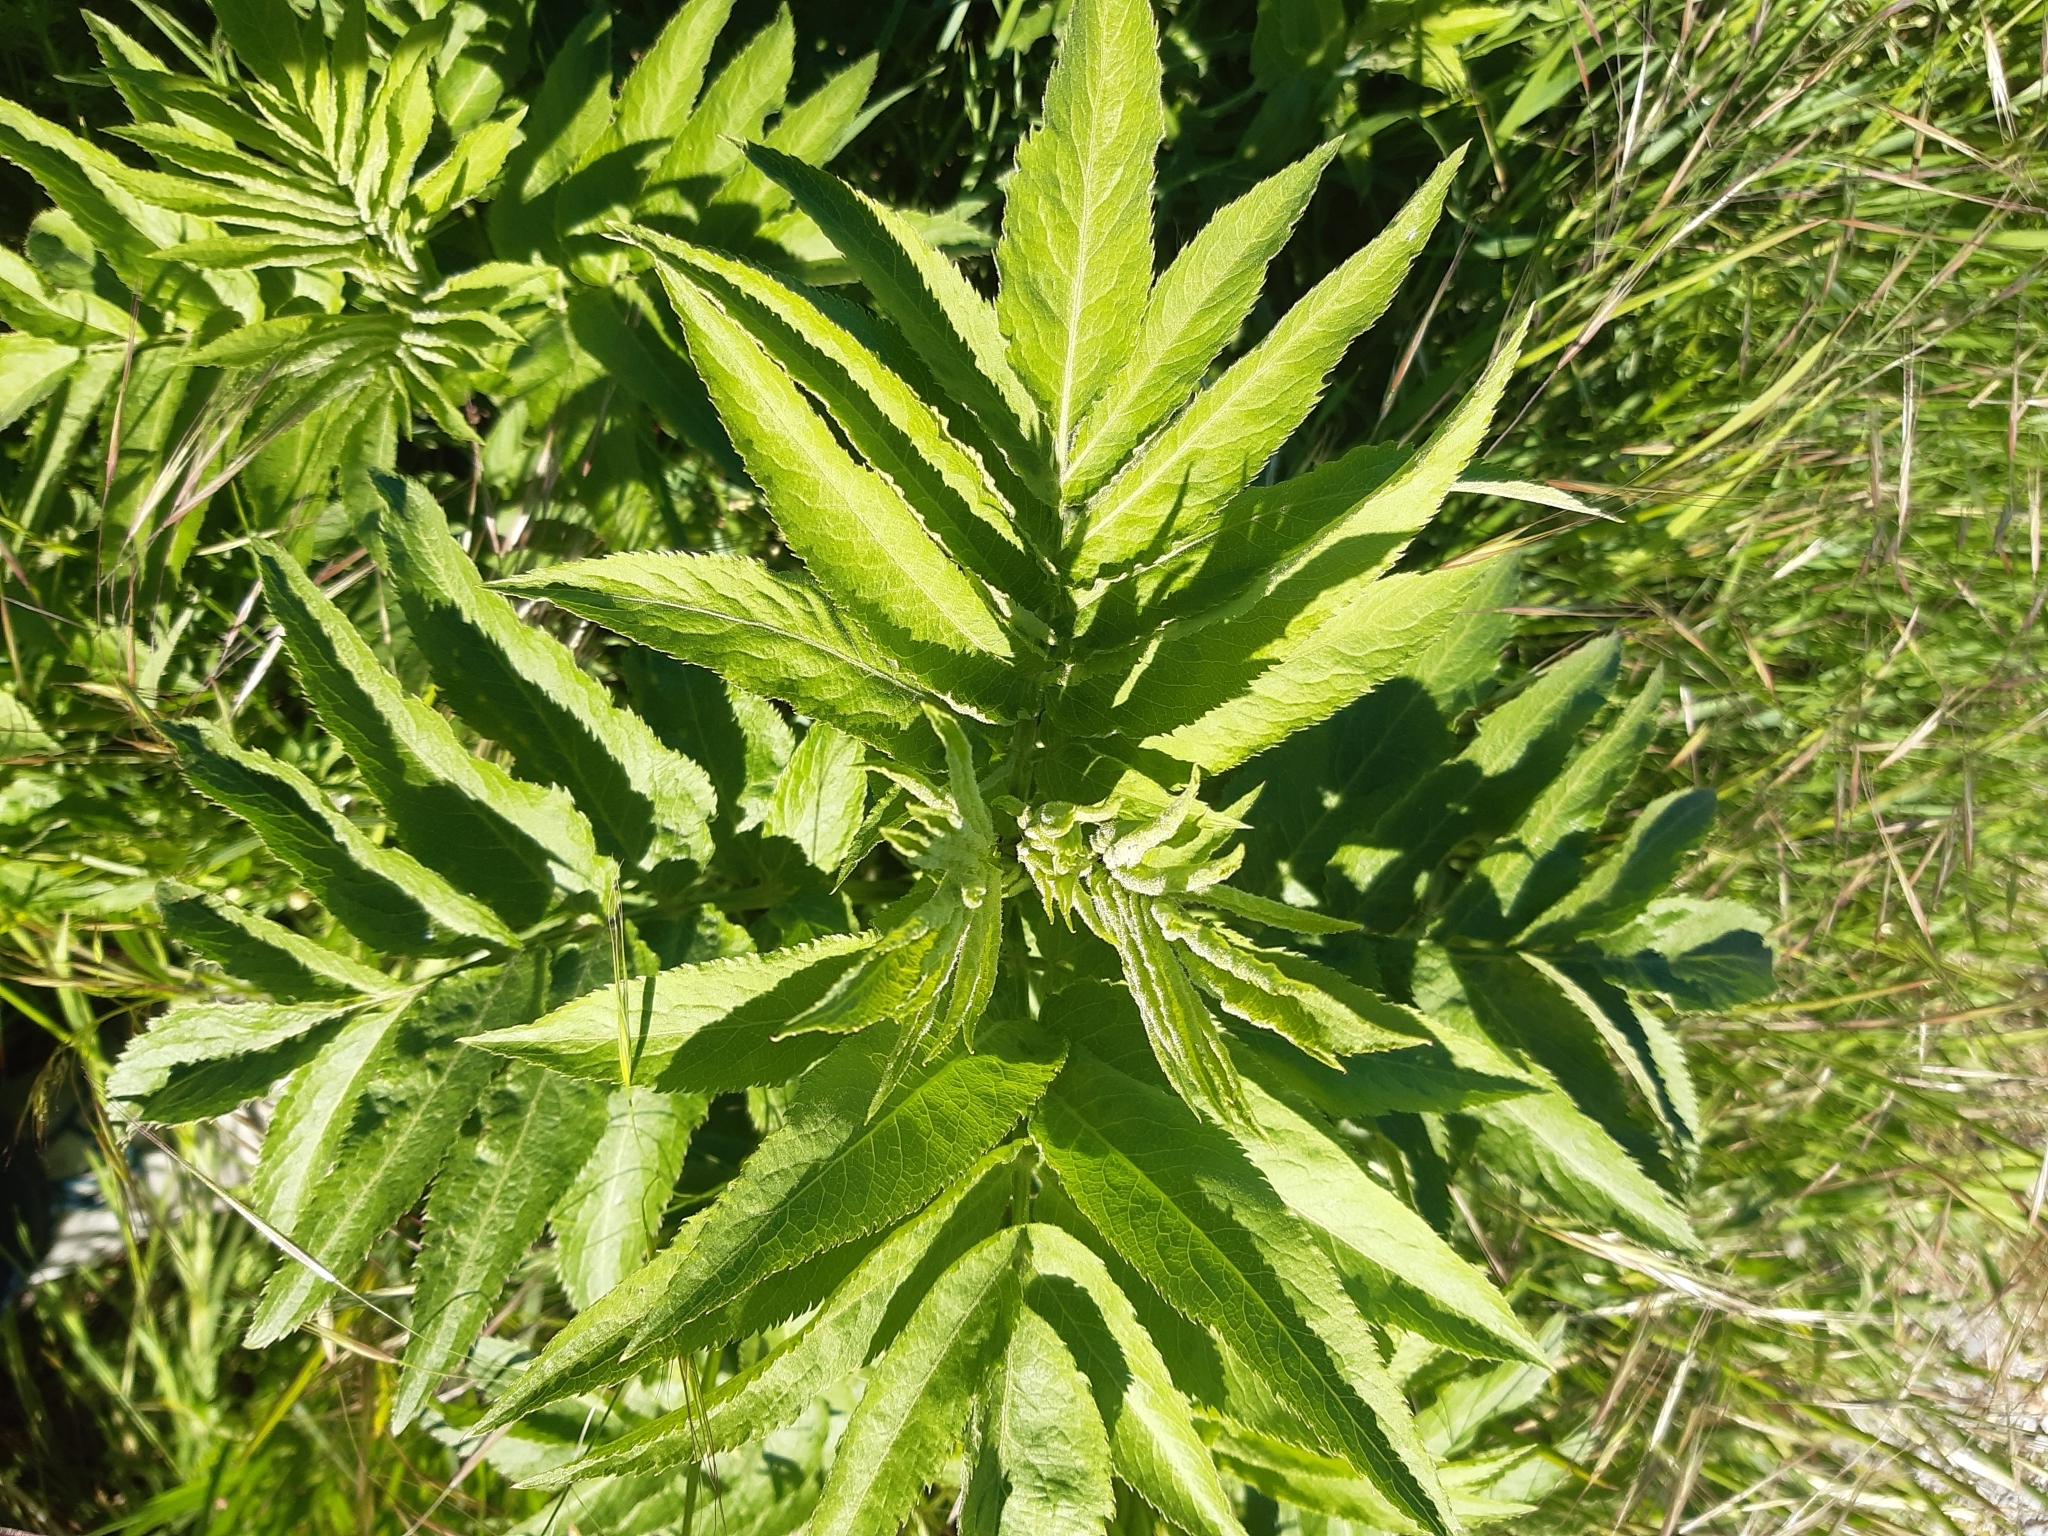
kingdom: Plantae
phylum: Tracheophyta
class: Magnoliopsida
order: Dipsacales
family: Viburnaceae
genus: Sambucus
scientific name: Sambucus ebulus
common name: Dwarf elder
